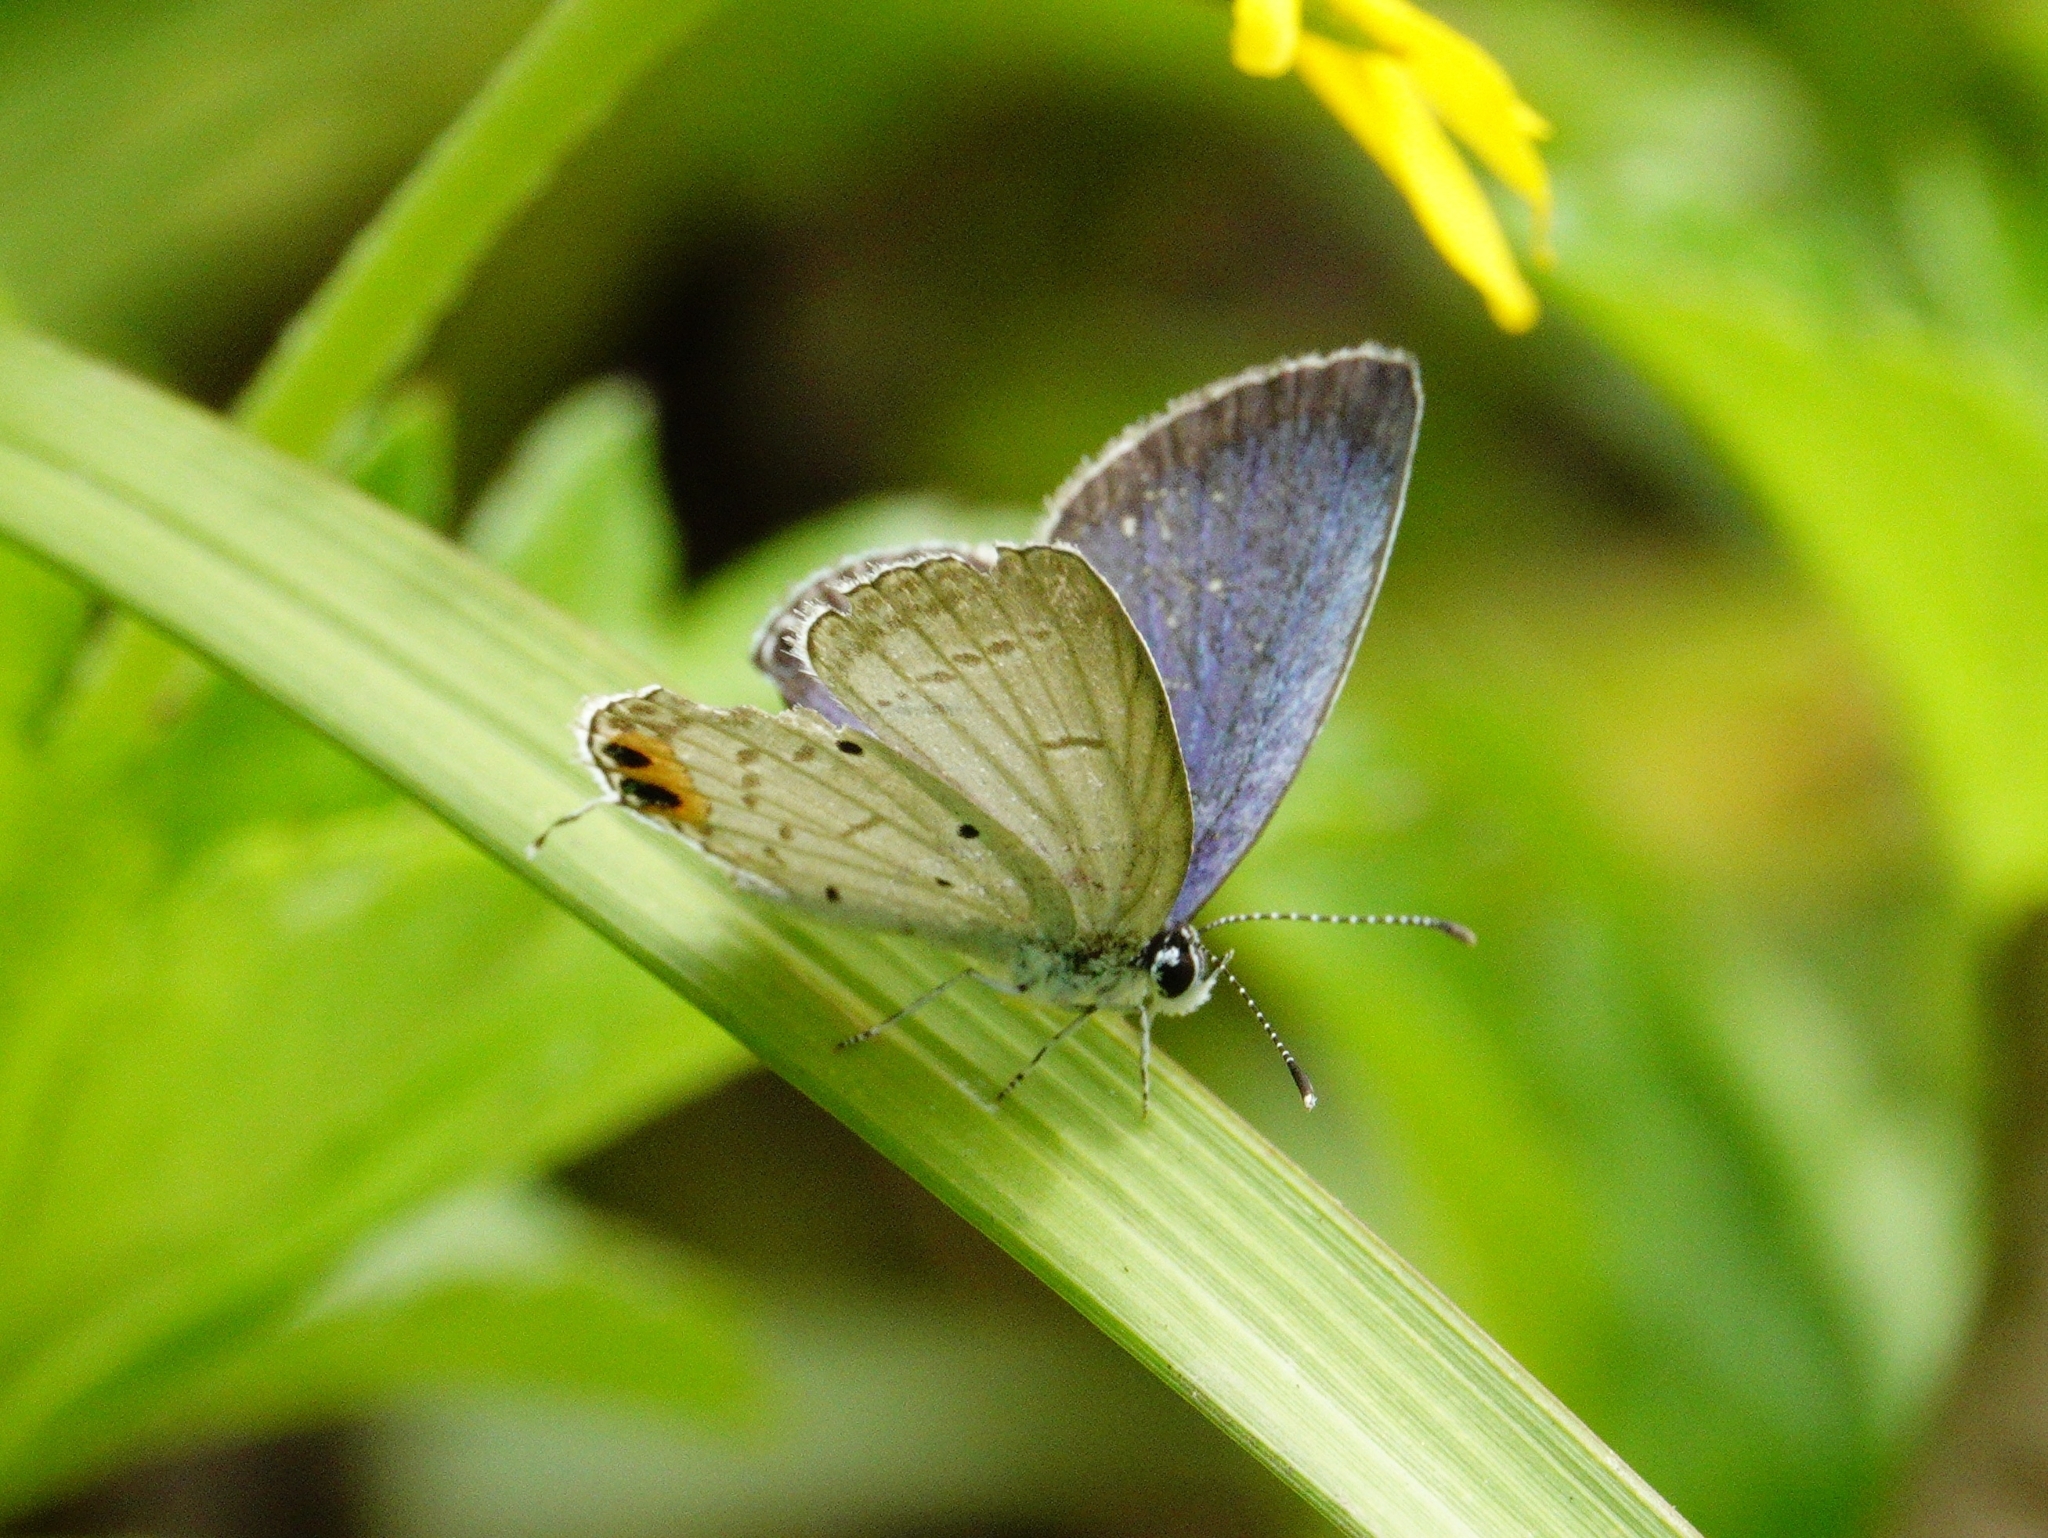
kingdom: Animalia
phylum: Arthropoda
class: Insecta
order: Lepidoptera
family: Lycaenidae
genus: Everes
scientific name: Everes lacturnus
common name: Orange-tipped pea-blue
